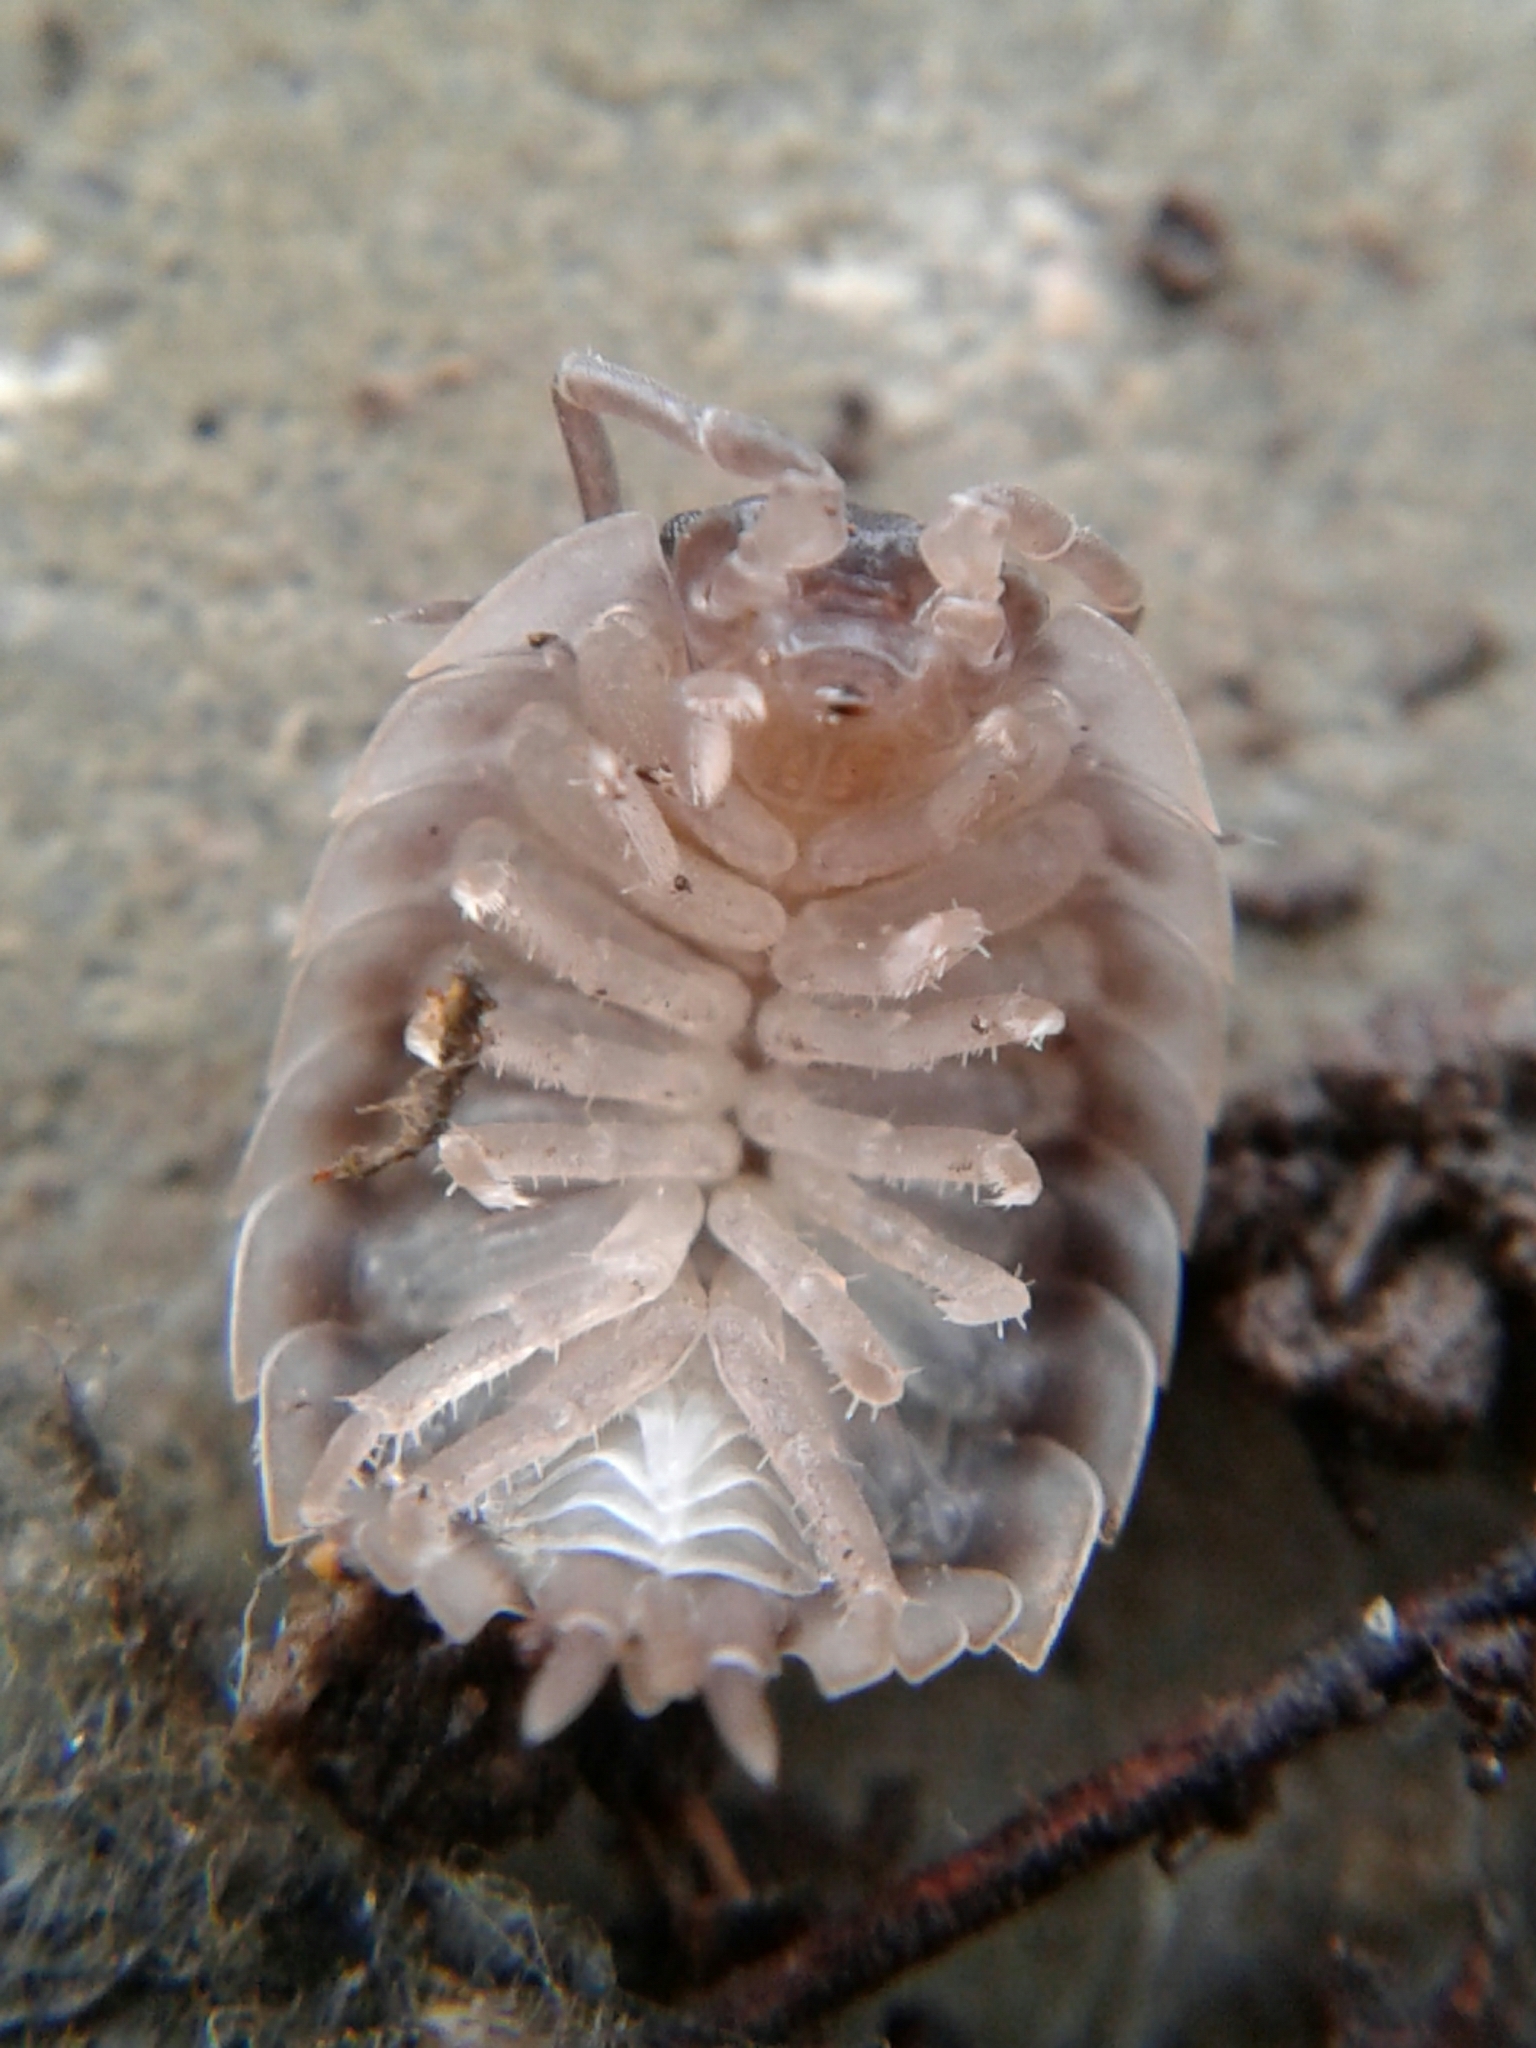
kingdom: Animalia
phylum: Arthropoda
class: Malacostraca
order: Isopoda
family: Oniscidae
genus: Oniscus
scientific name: Oniscus asellus
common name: Common shiny woodlouse
